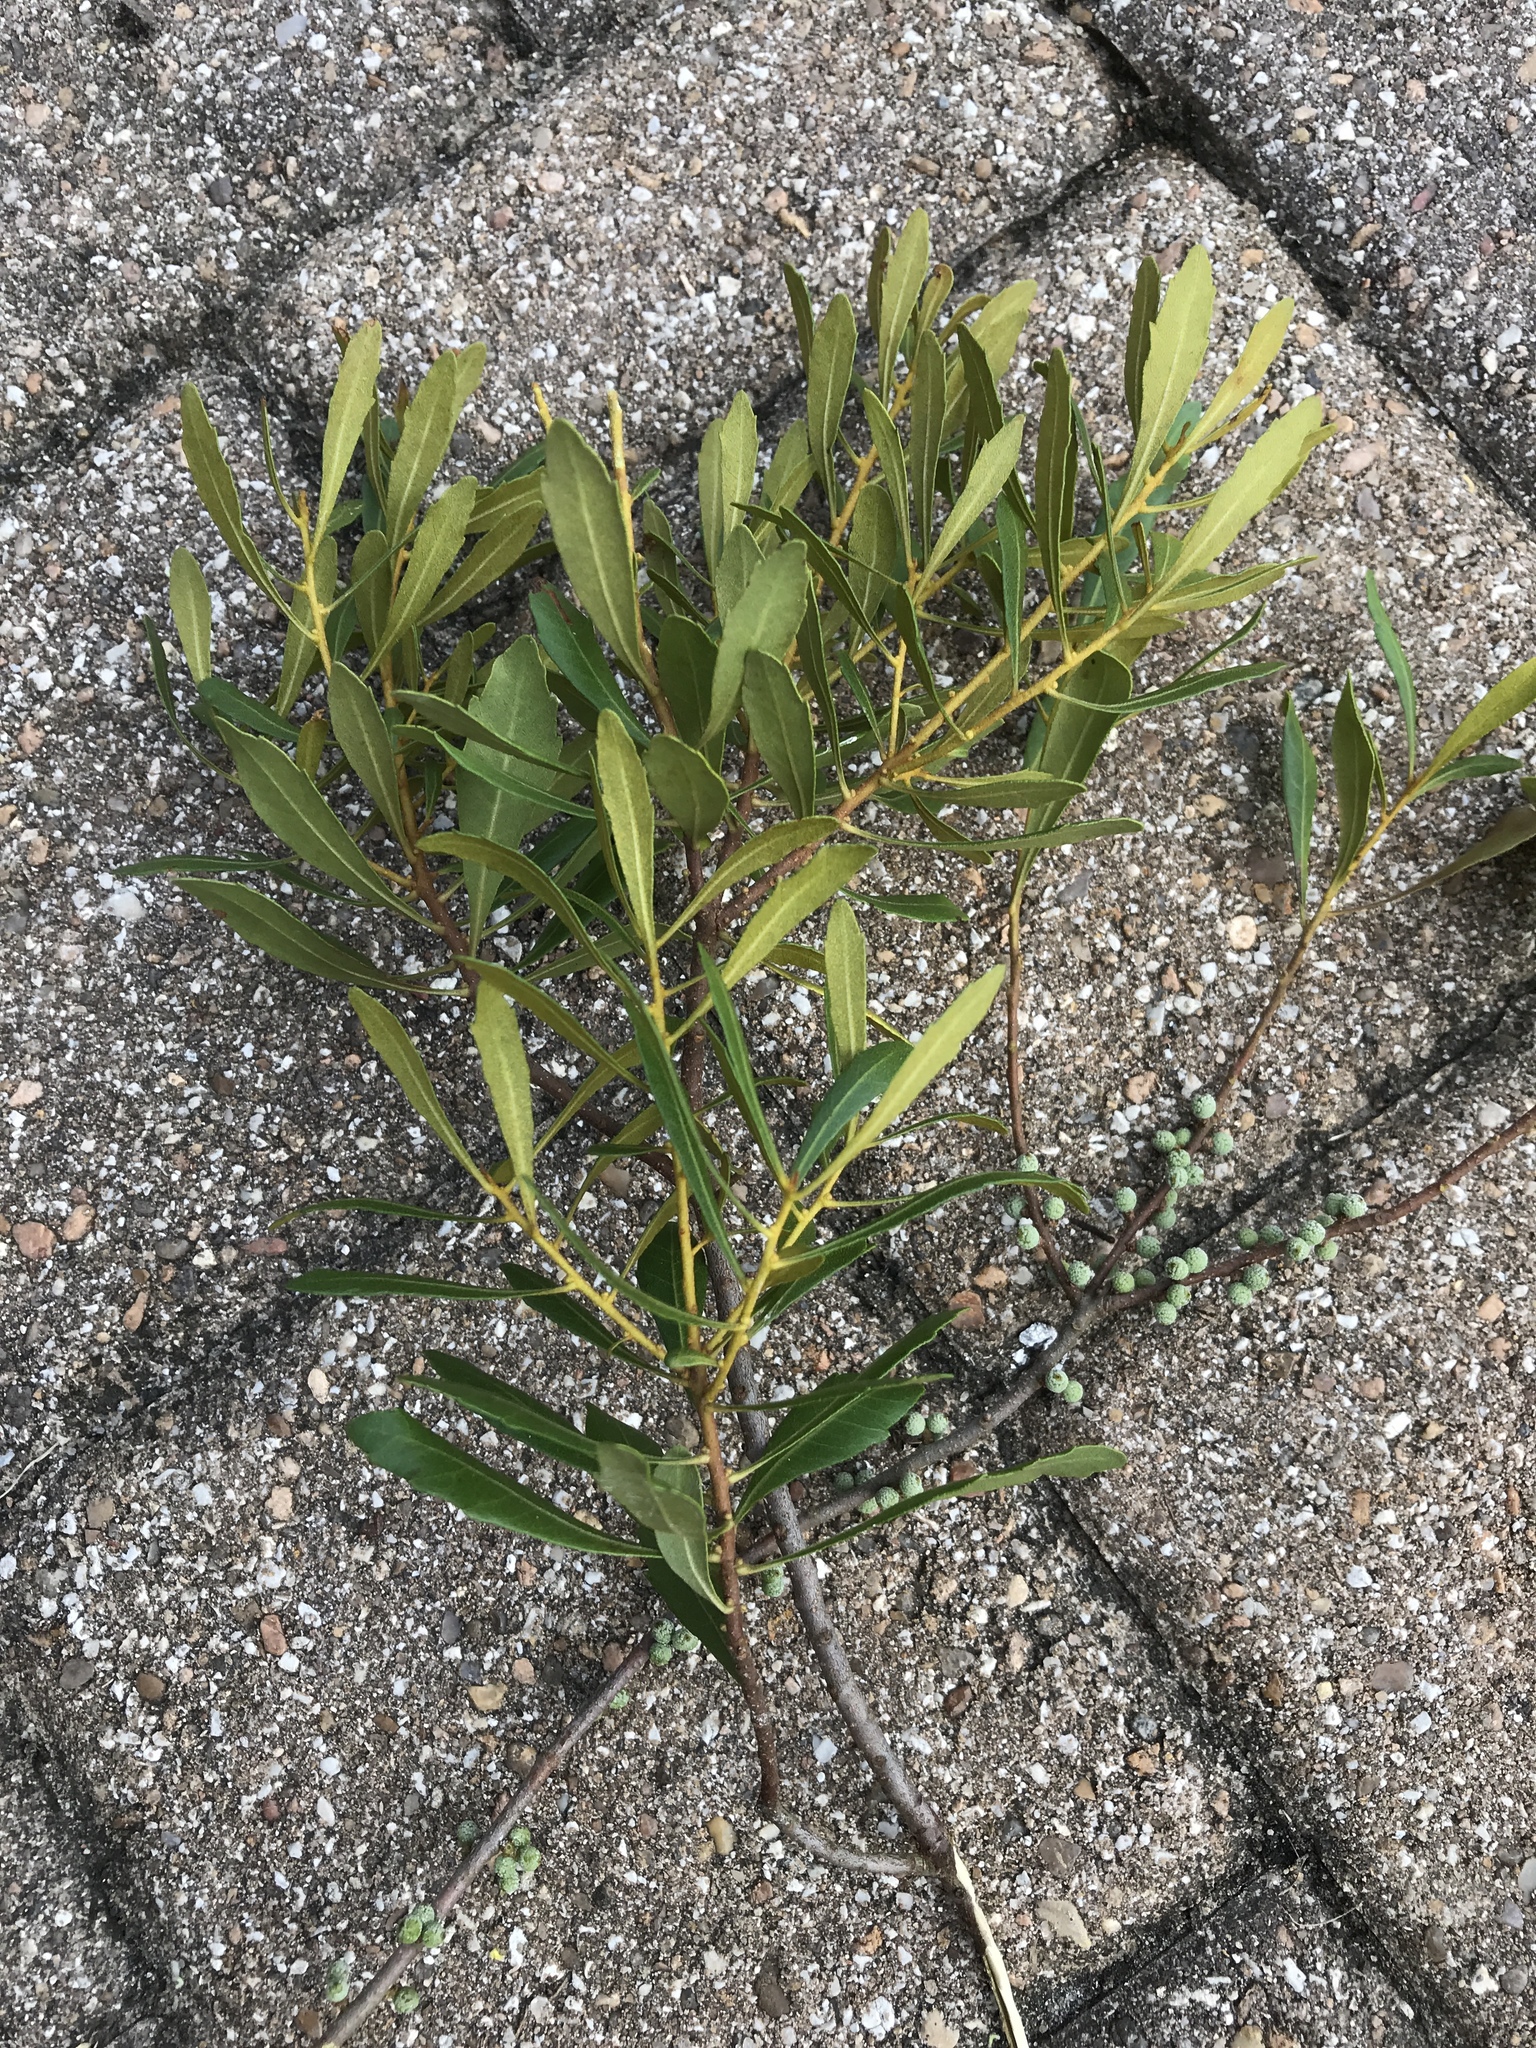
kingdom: Plantae
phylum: Tracheophyta
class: Magnoliopsida
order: Fagales
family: Myricaceae
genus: Morella
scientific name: Morella cerifera
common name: Wax myrtle
